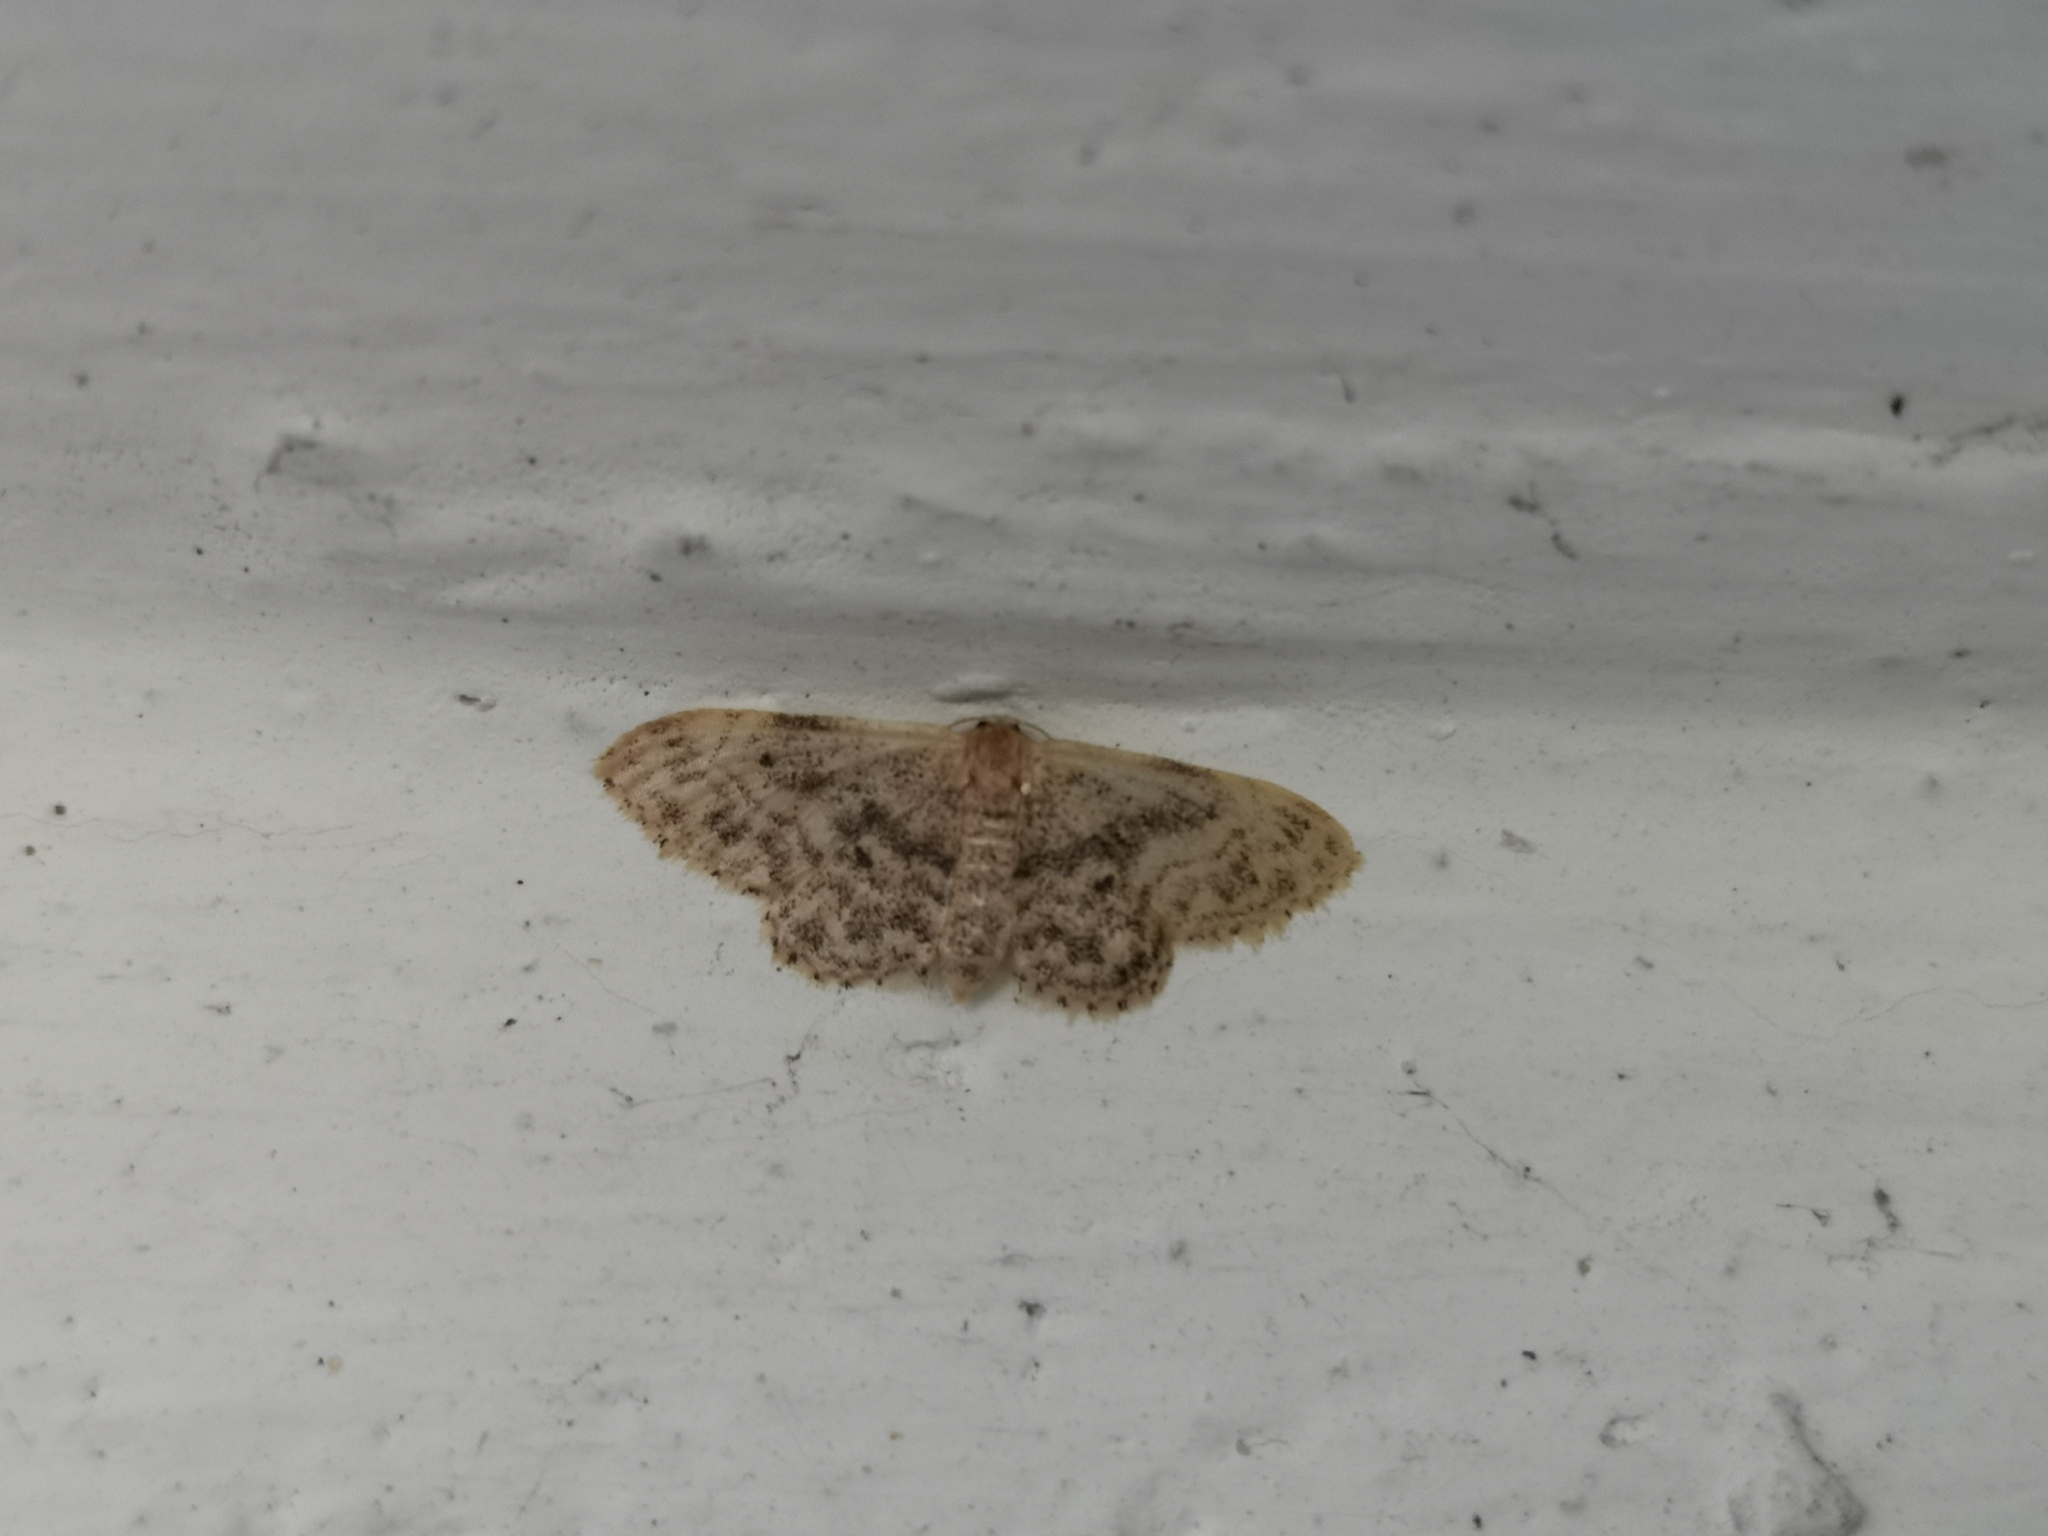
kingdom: Animalia
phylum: Arthropoda
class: Insecta
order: Lepidoptera
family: Geometridae
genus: Idaea
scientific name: Idaea inquinata
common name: Rusty wave
